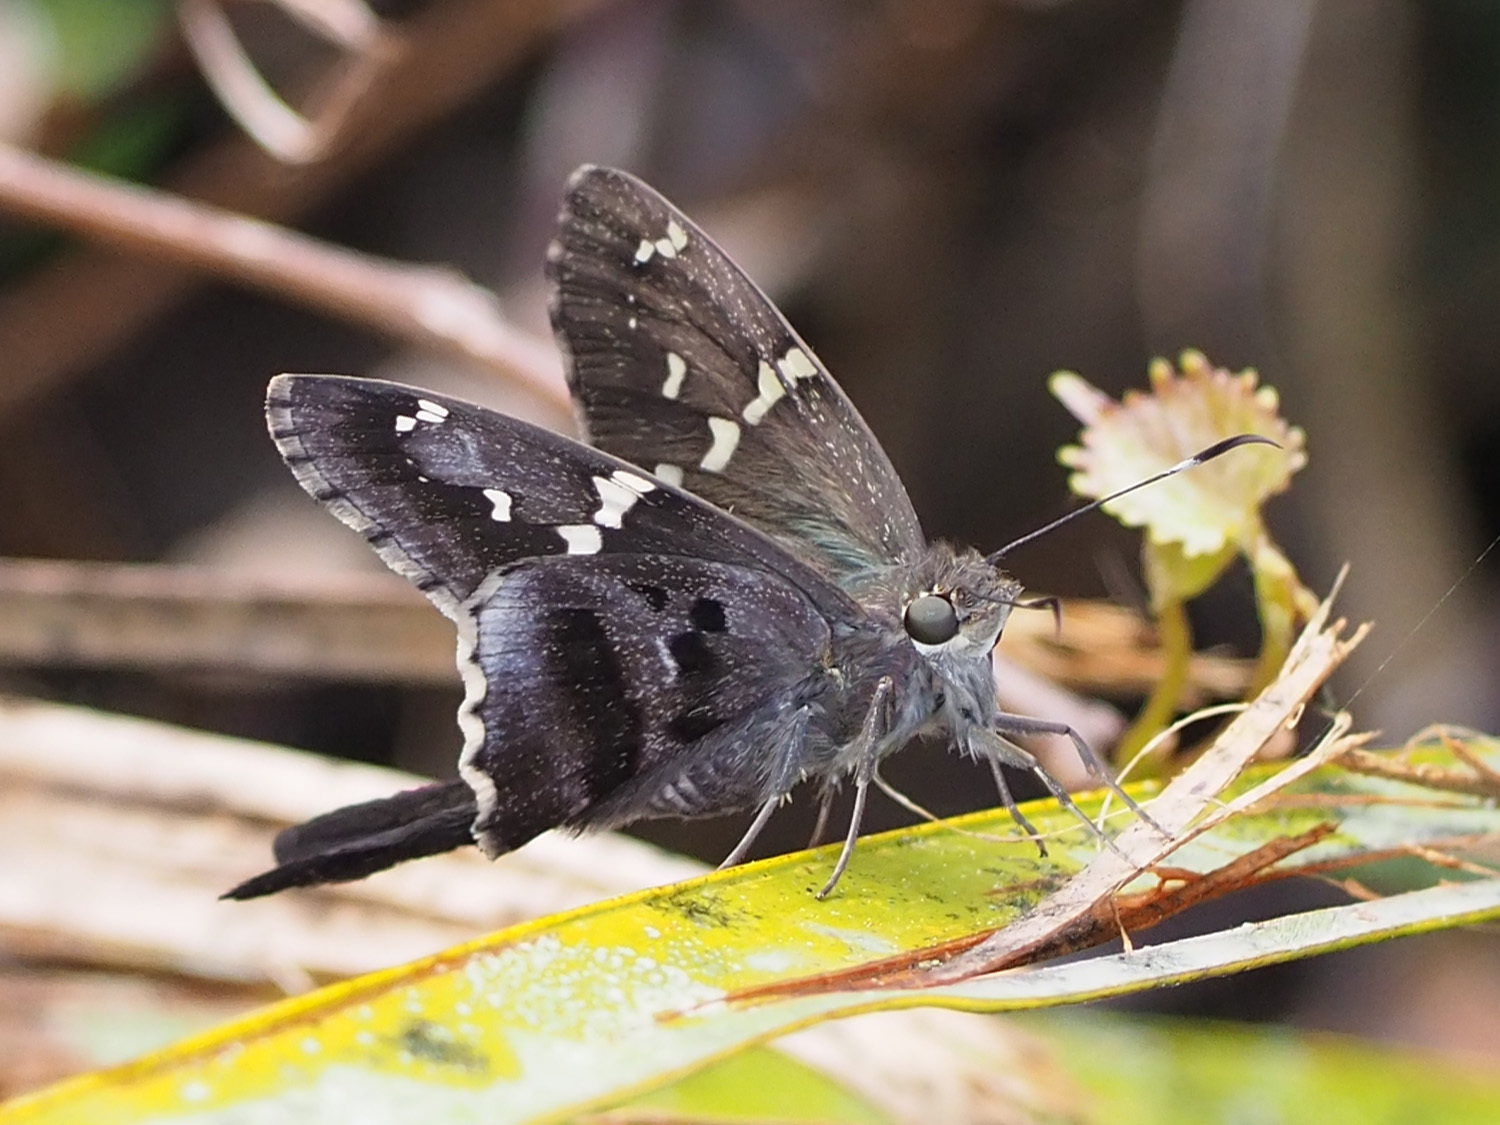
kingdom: Animalia
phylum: Arthropoda
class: Insecta
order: Lepidoptera
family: Hesperiidae
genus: Urbanus
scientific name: Urbanus proteus
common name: Long-tailed skipper
